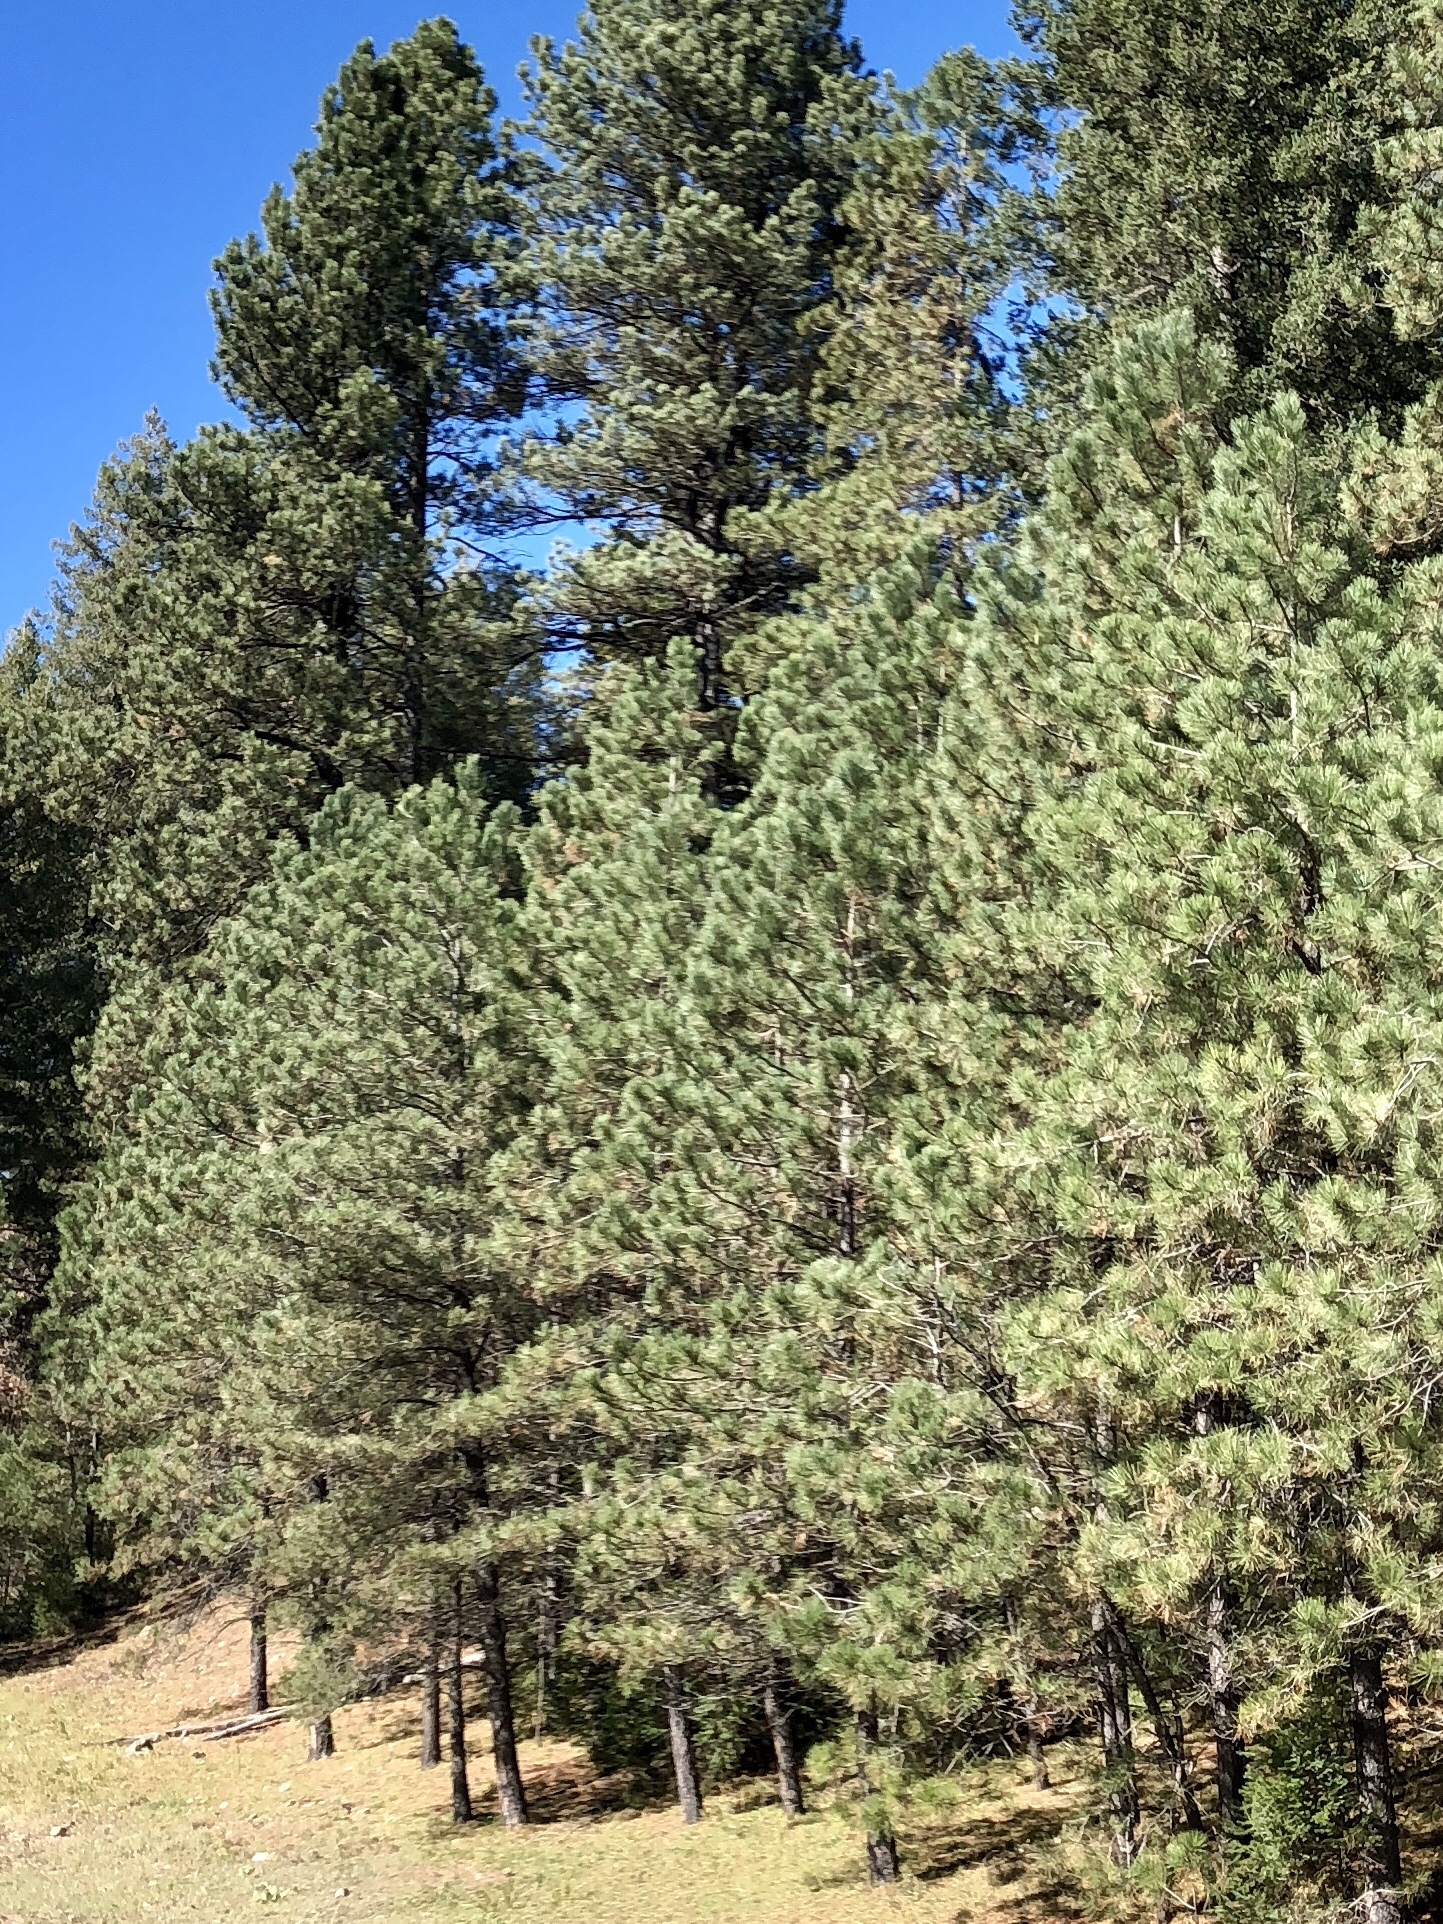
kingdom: Plantae
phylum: Tracheophyta
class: Pinopsida
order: Pinales
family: Pinaceae
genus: Pinus
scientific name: Pinus ponderosa
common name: Western yellow-pine
